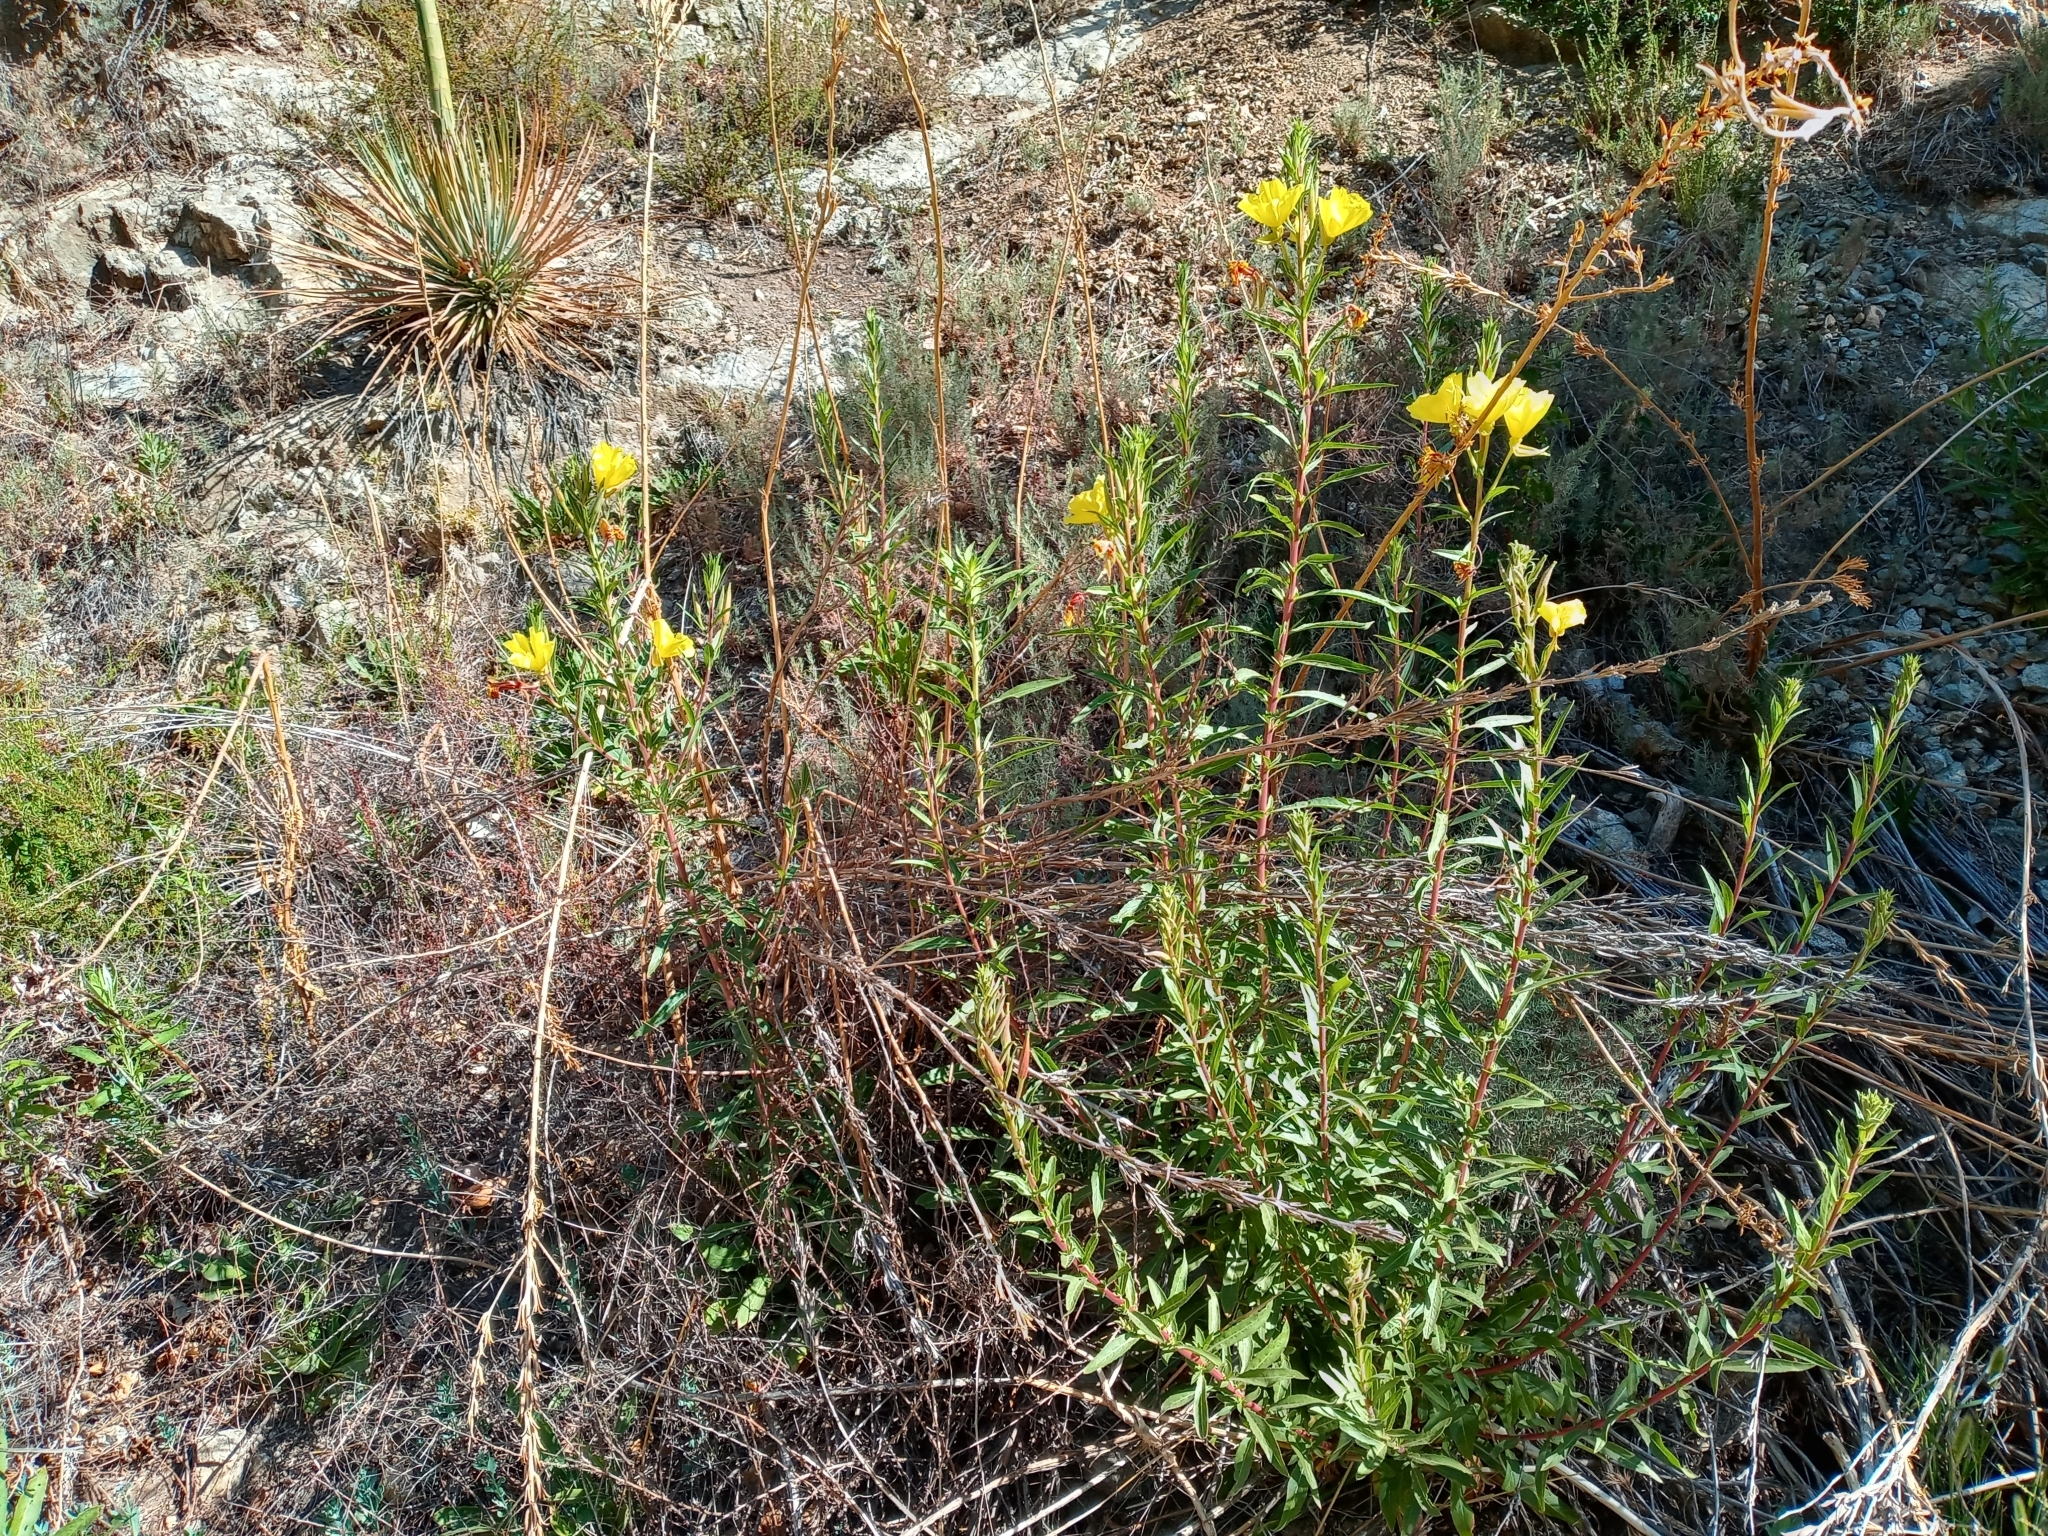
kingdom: Plantae
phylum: Tracheophyta
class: Magnoliopsida
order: Myrtales
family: Onagraceae
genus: Oenothera
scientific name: Oenothera elata
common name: Hooker's evening-primrose
